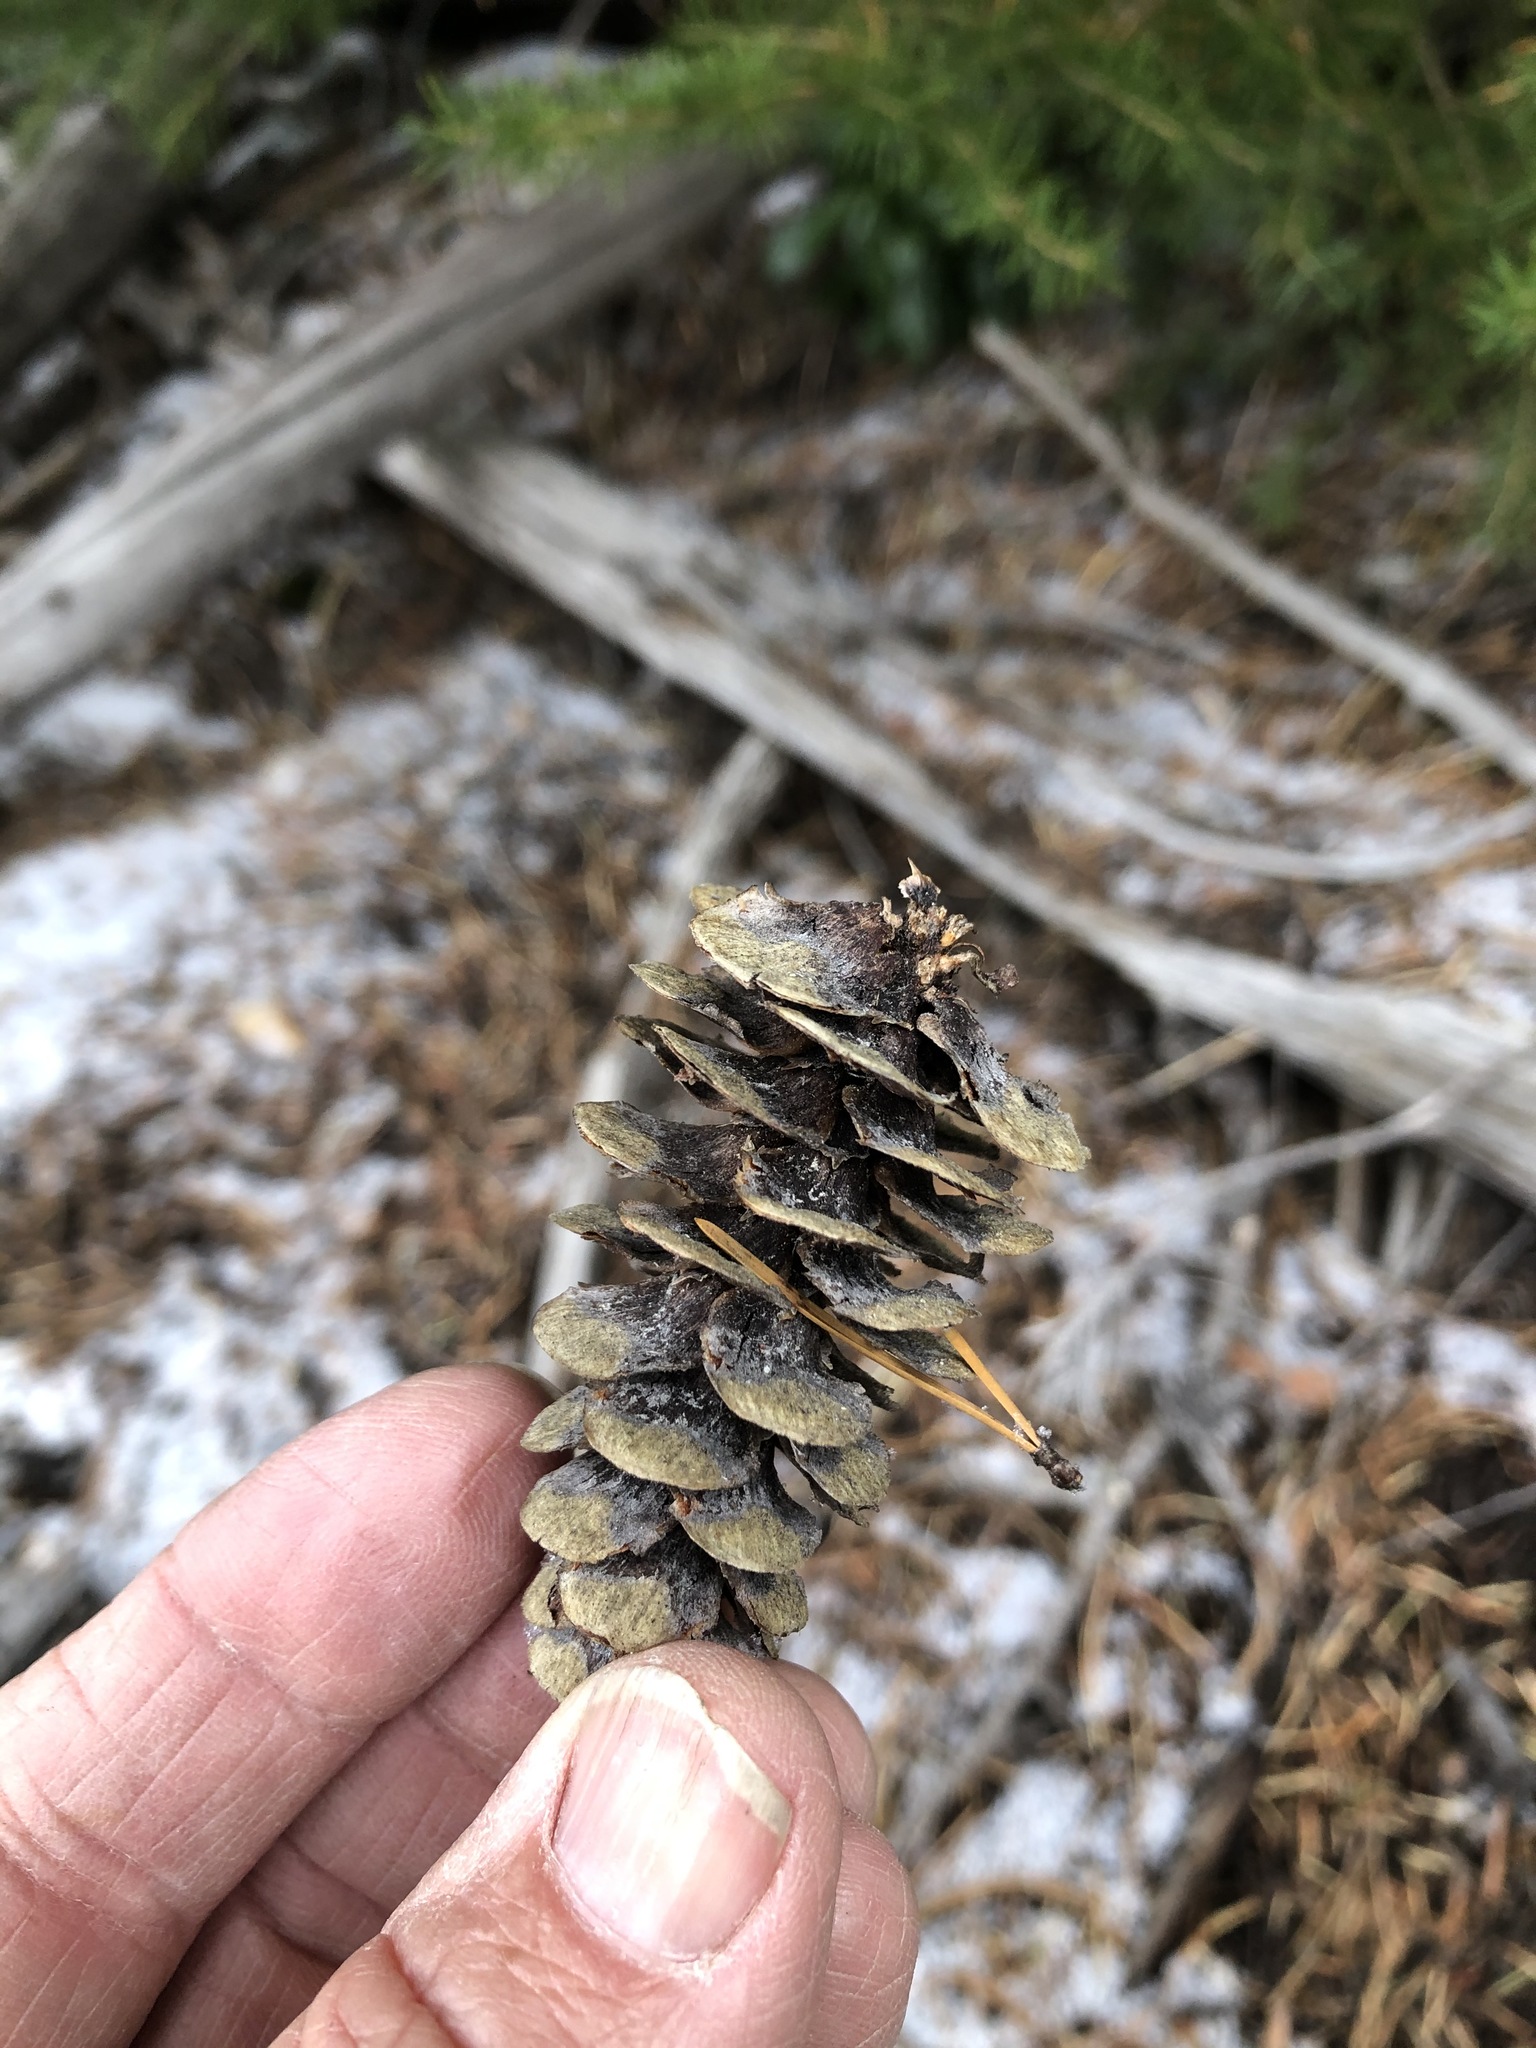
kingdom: Plantae
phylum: Tracheophyta
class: Pinopsida
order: Pinales
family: Pinaceae
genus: Tsuga
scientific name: Tsuga mertensiana
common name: Mountain hemlock
